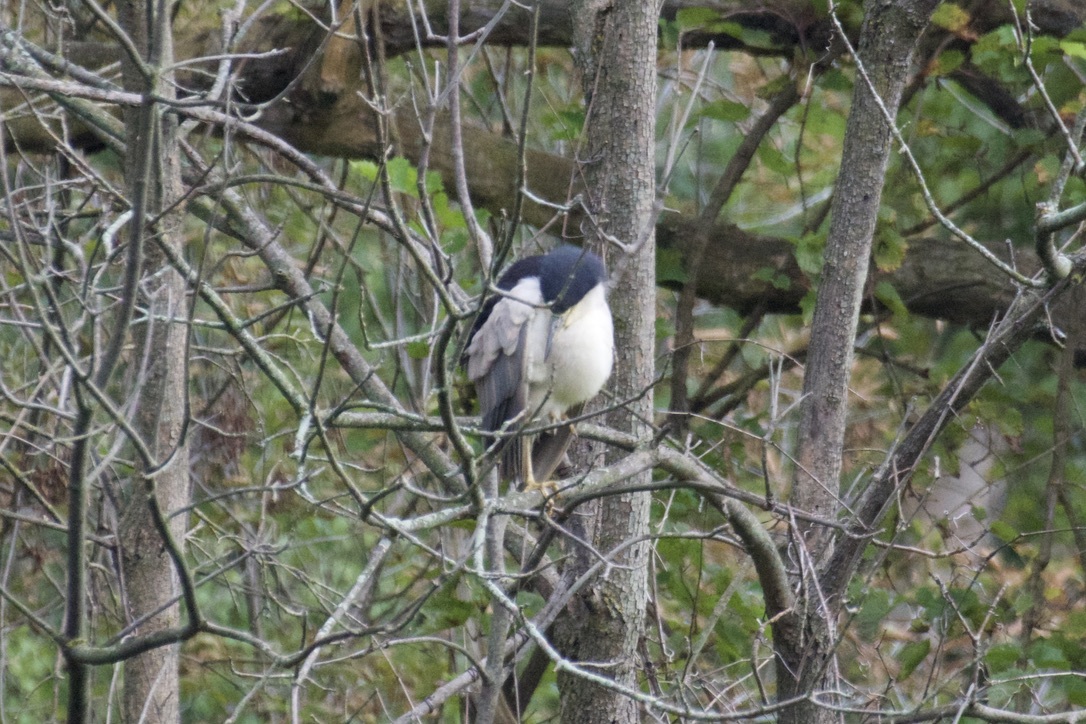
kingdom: Animalia
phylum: Chordata
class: Aves
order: Pelecaniformes
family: Ardeidae
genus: Nycticorax
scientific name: Nycticorax nycticorax
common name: Black-crowned night heron
